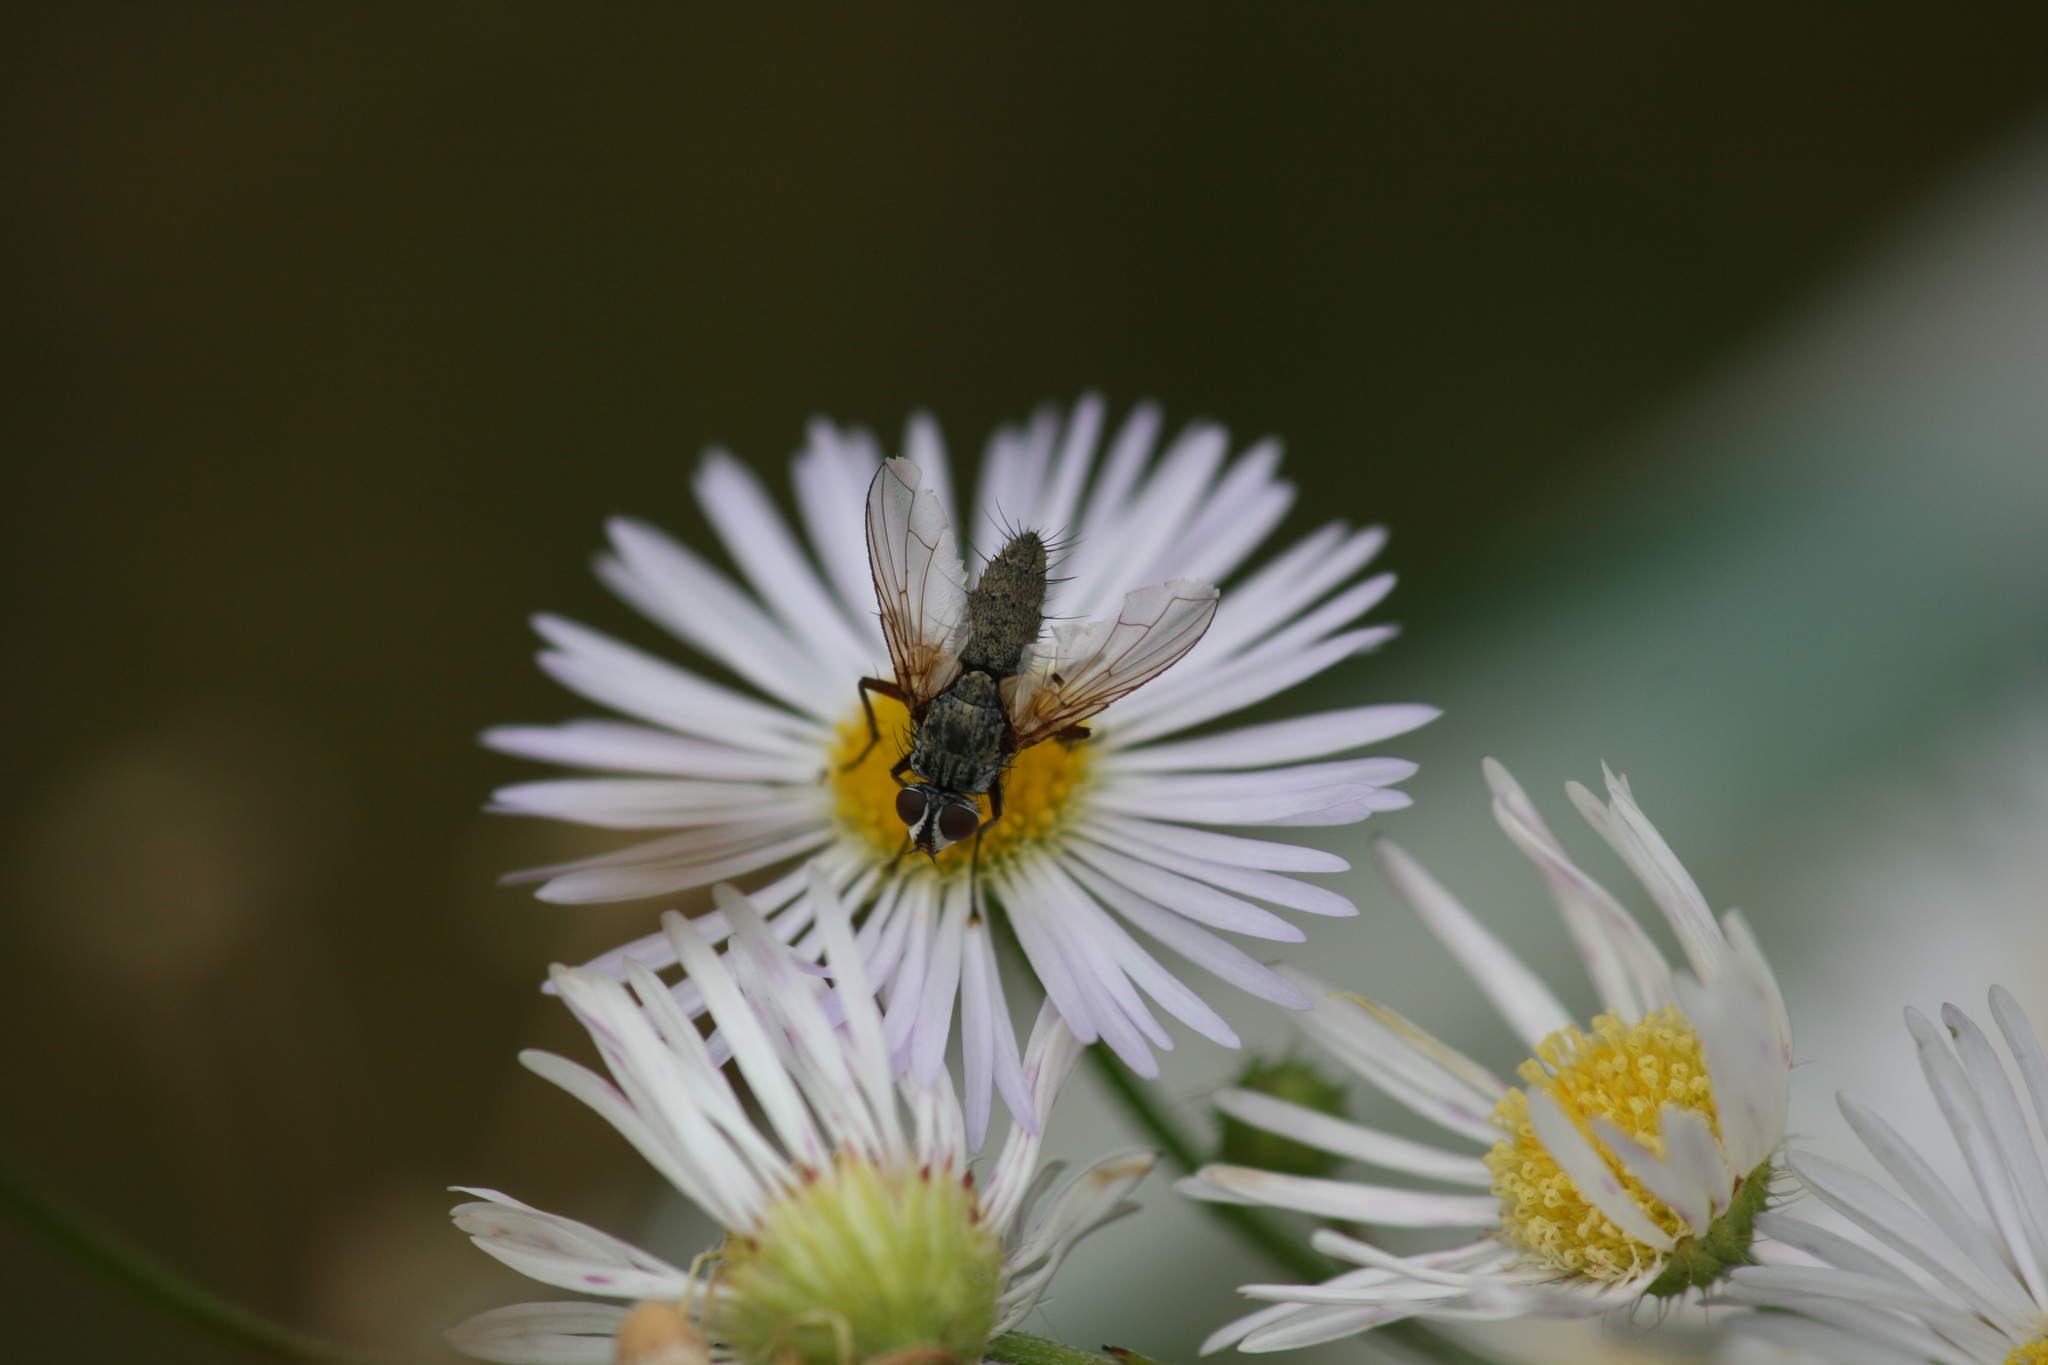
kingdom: Animalia
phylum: Arthropoda
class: Insecta
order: Diptera
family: Tachinidae
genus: Dinera
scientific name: Dinera grisescens
